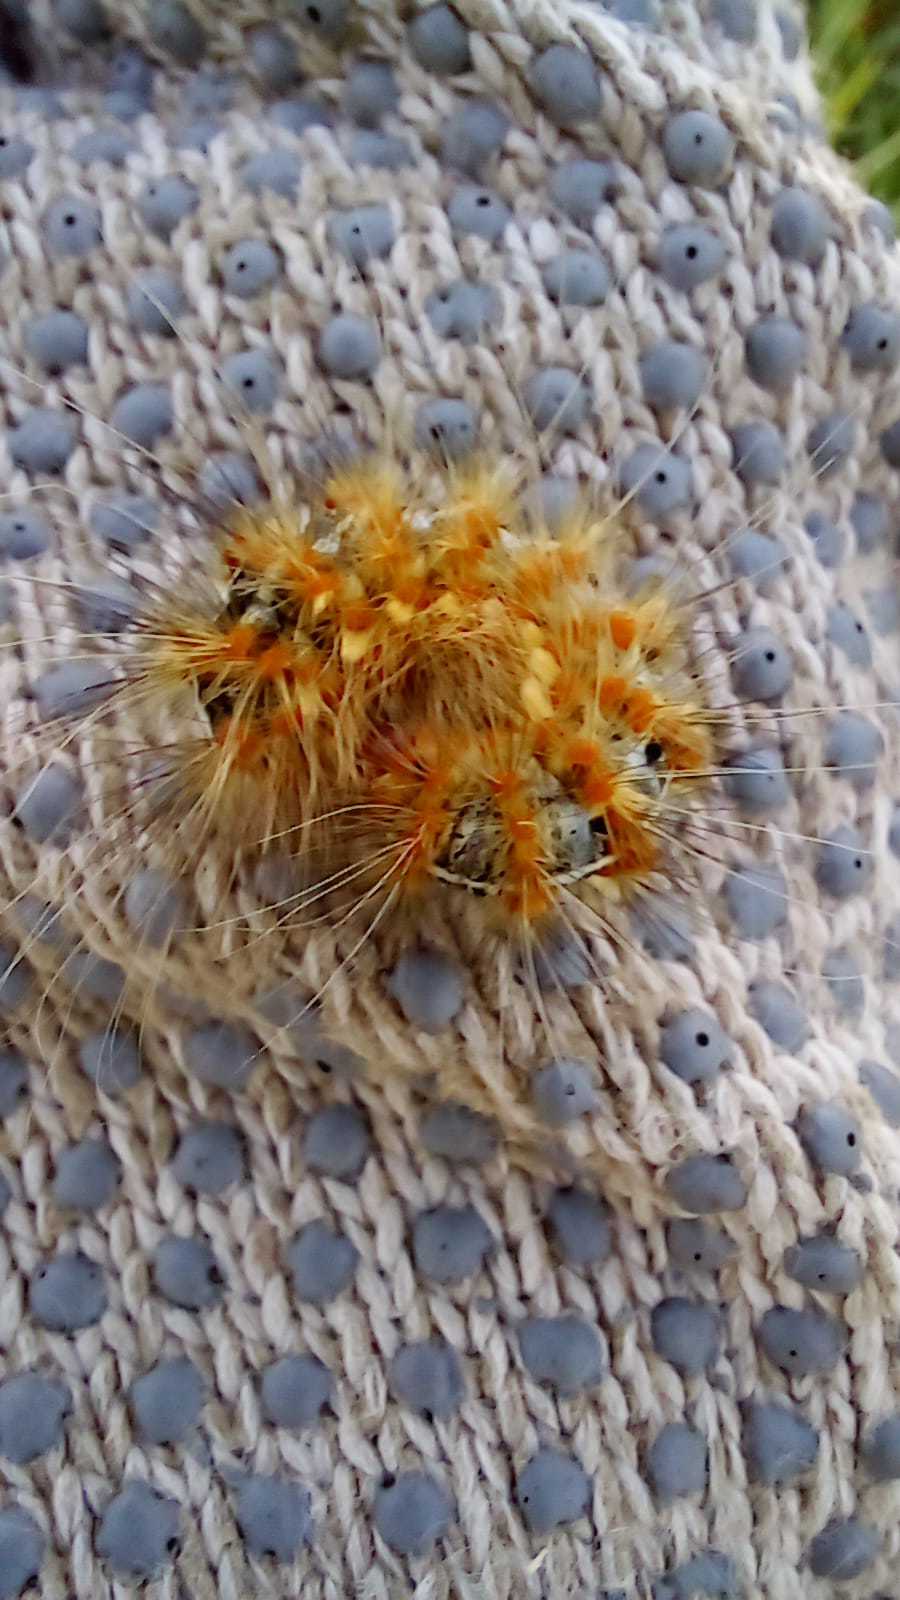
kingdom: Animalia
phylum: Arthropoda
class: Insecta
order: Lepidoptera
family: Erebidae
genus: Paracles
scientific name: Paracles deserticola
